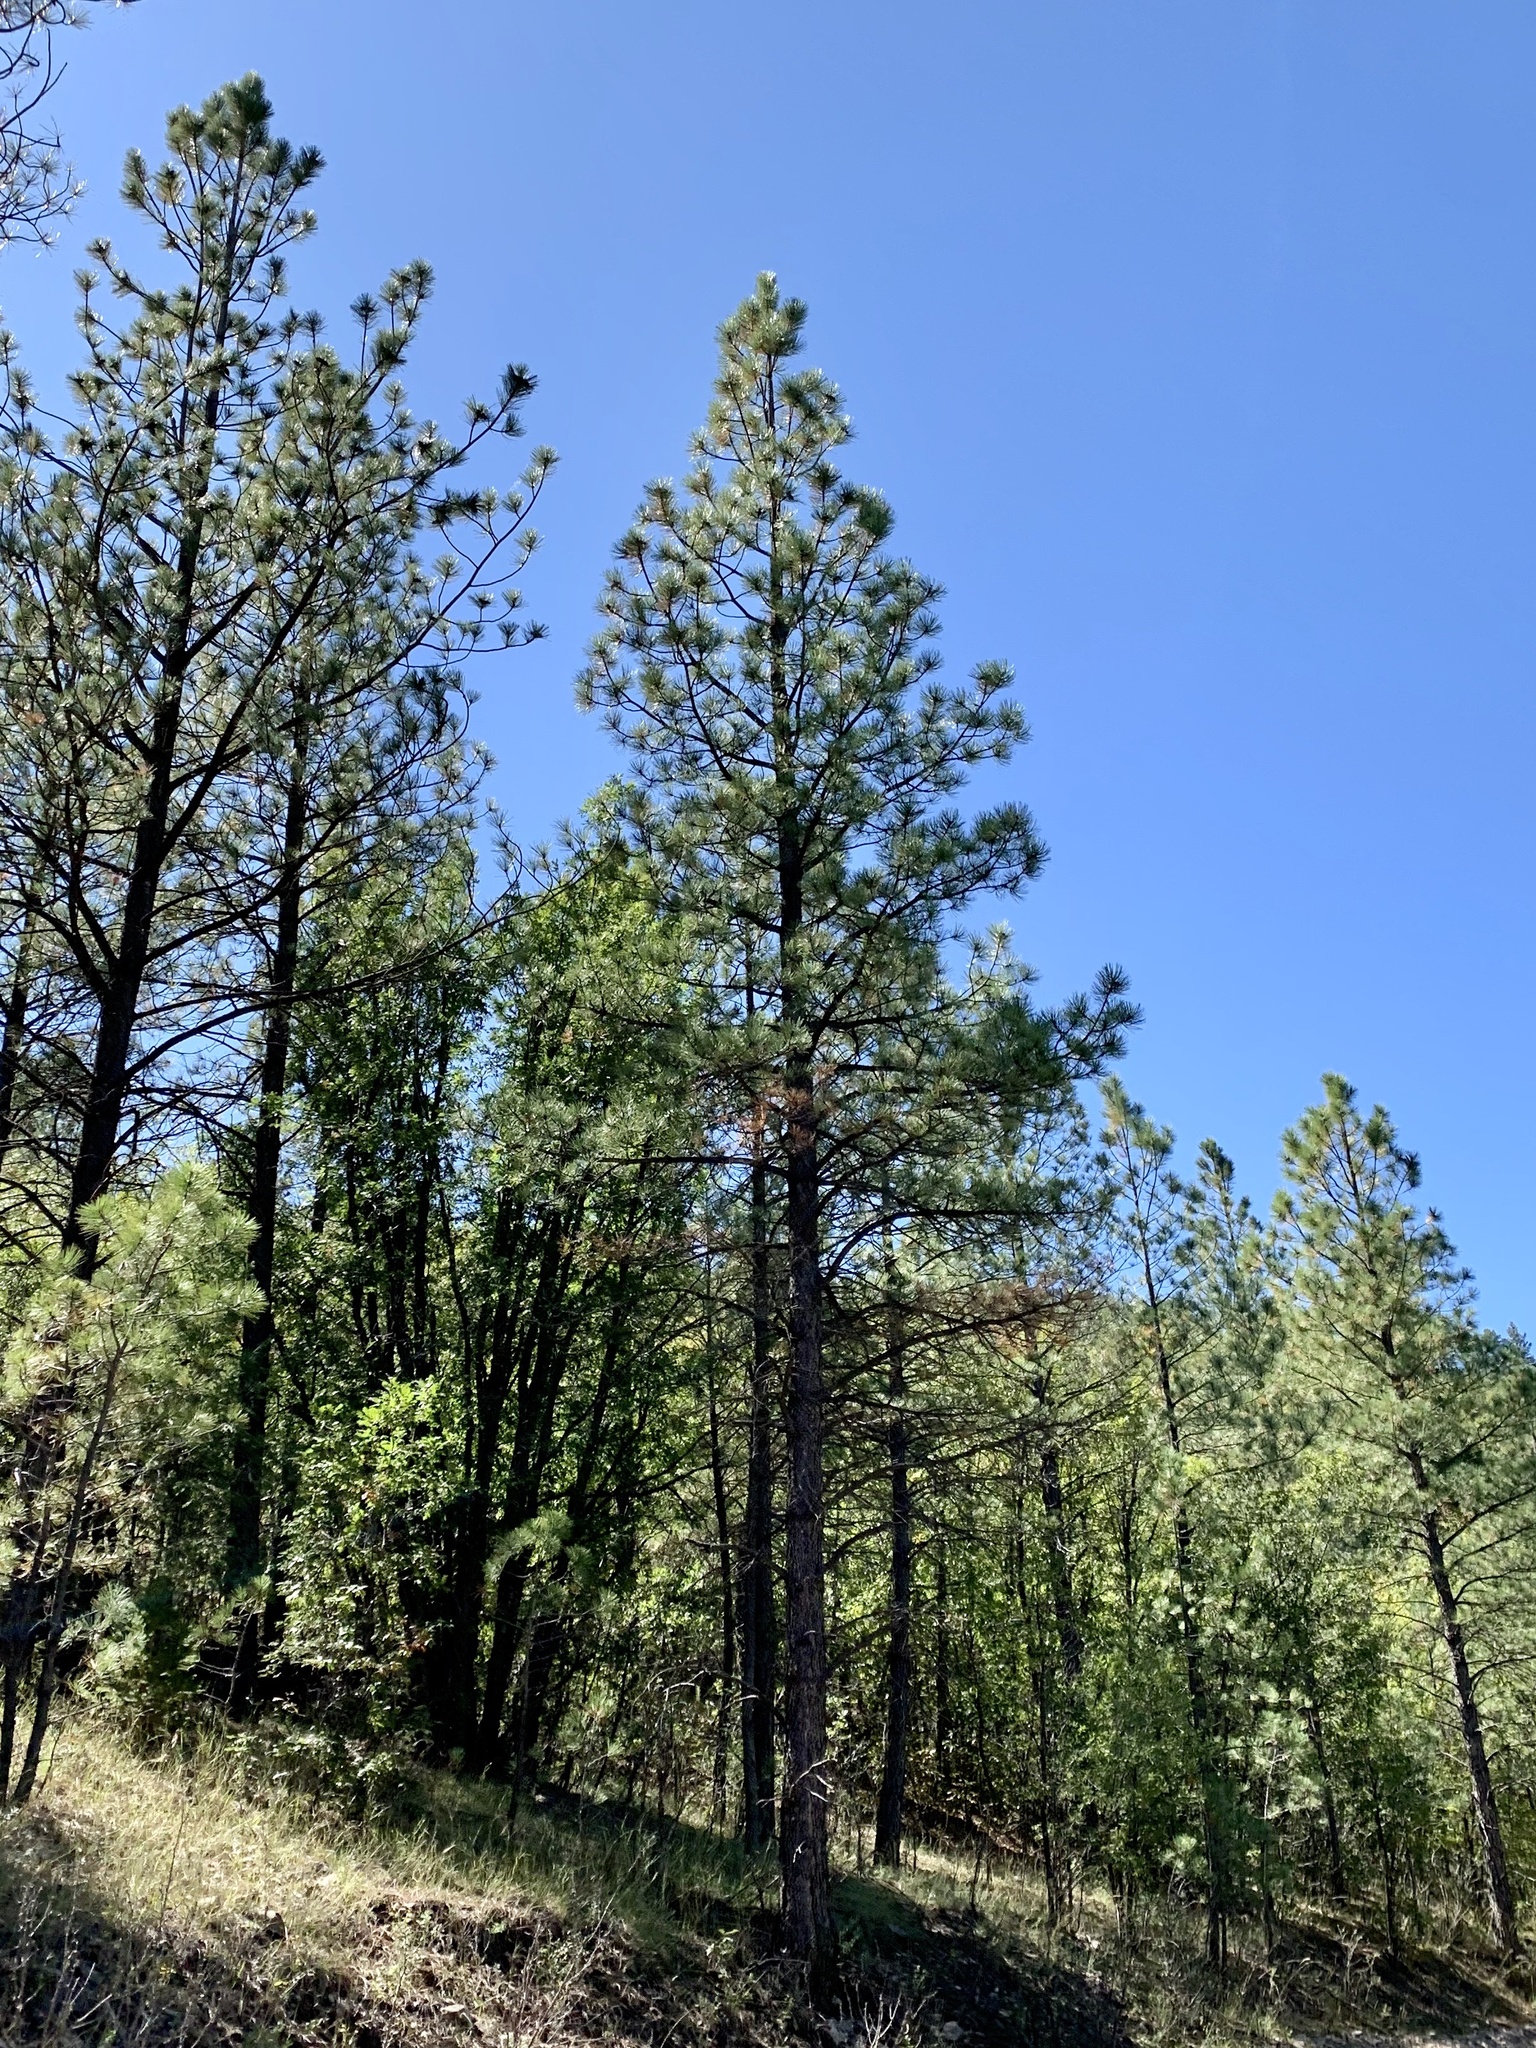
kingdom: Plantae
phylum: Tracheophyta
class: Pinopsida
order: Pinales
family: Pinaceae
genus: Pinus
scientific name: Pinus ponderosa
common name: Western yellow-pine
